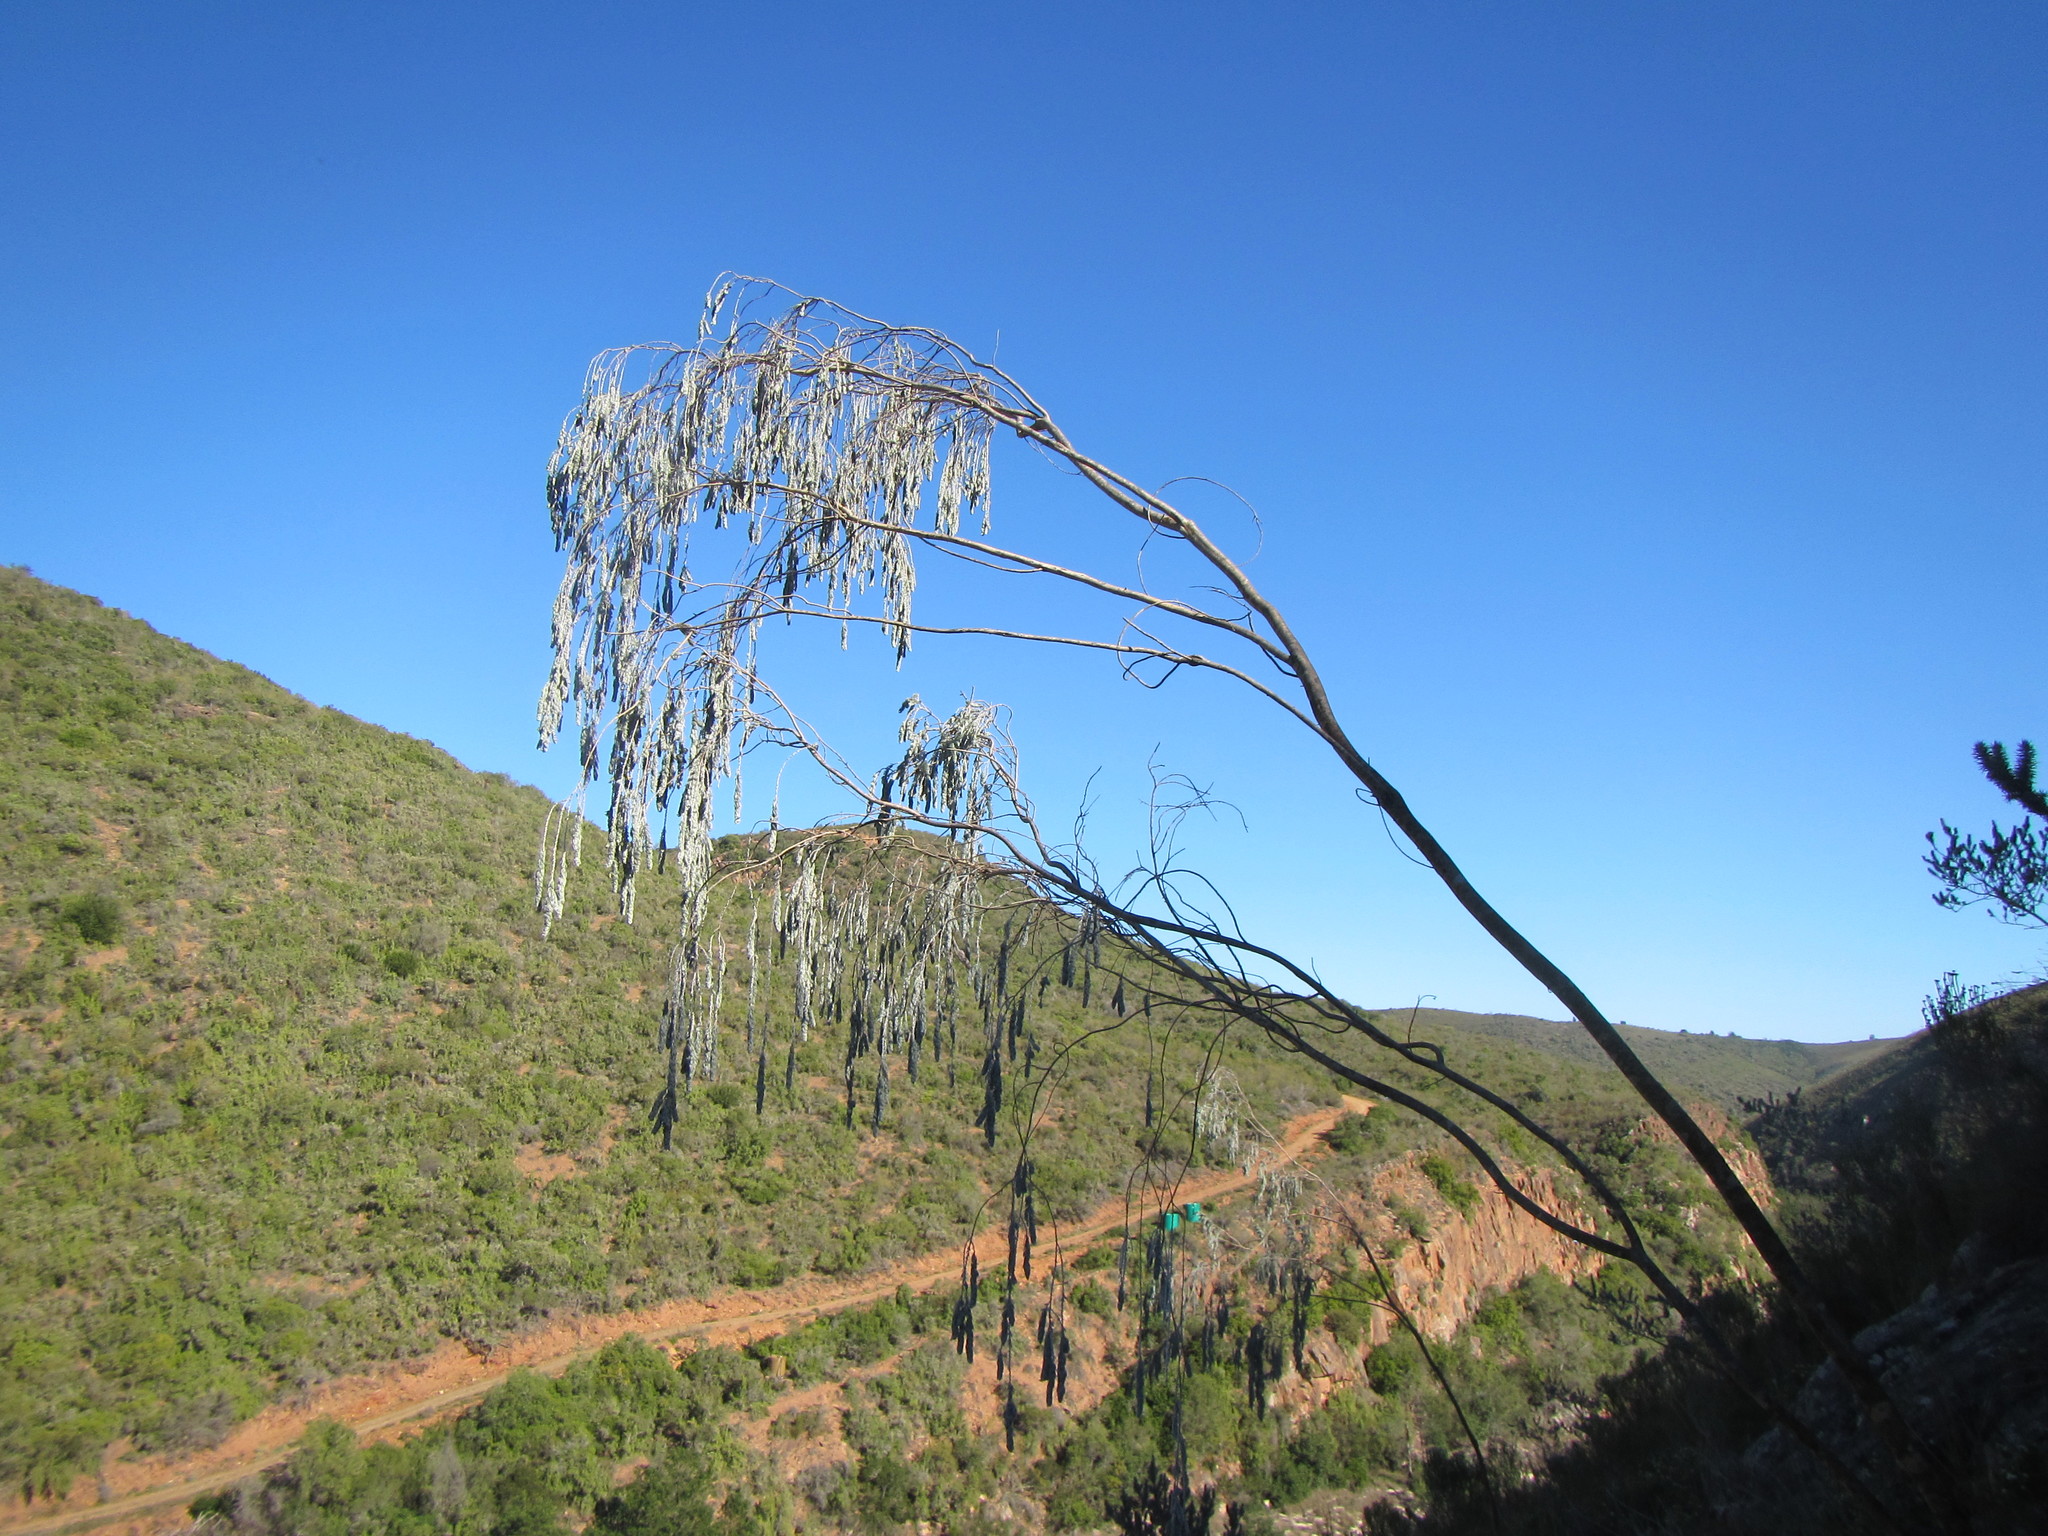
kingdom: Plantae
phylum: Tracheophyta
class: Magnoliopsida
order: Fabales
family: Fabaceae
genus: Aspalathus
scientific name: Aspalathus usnoides
